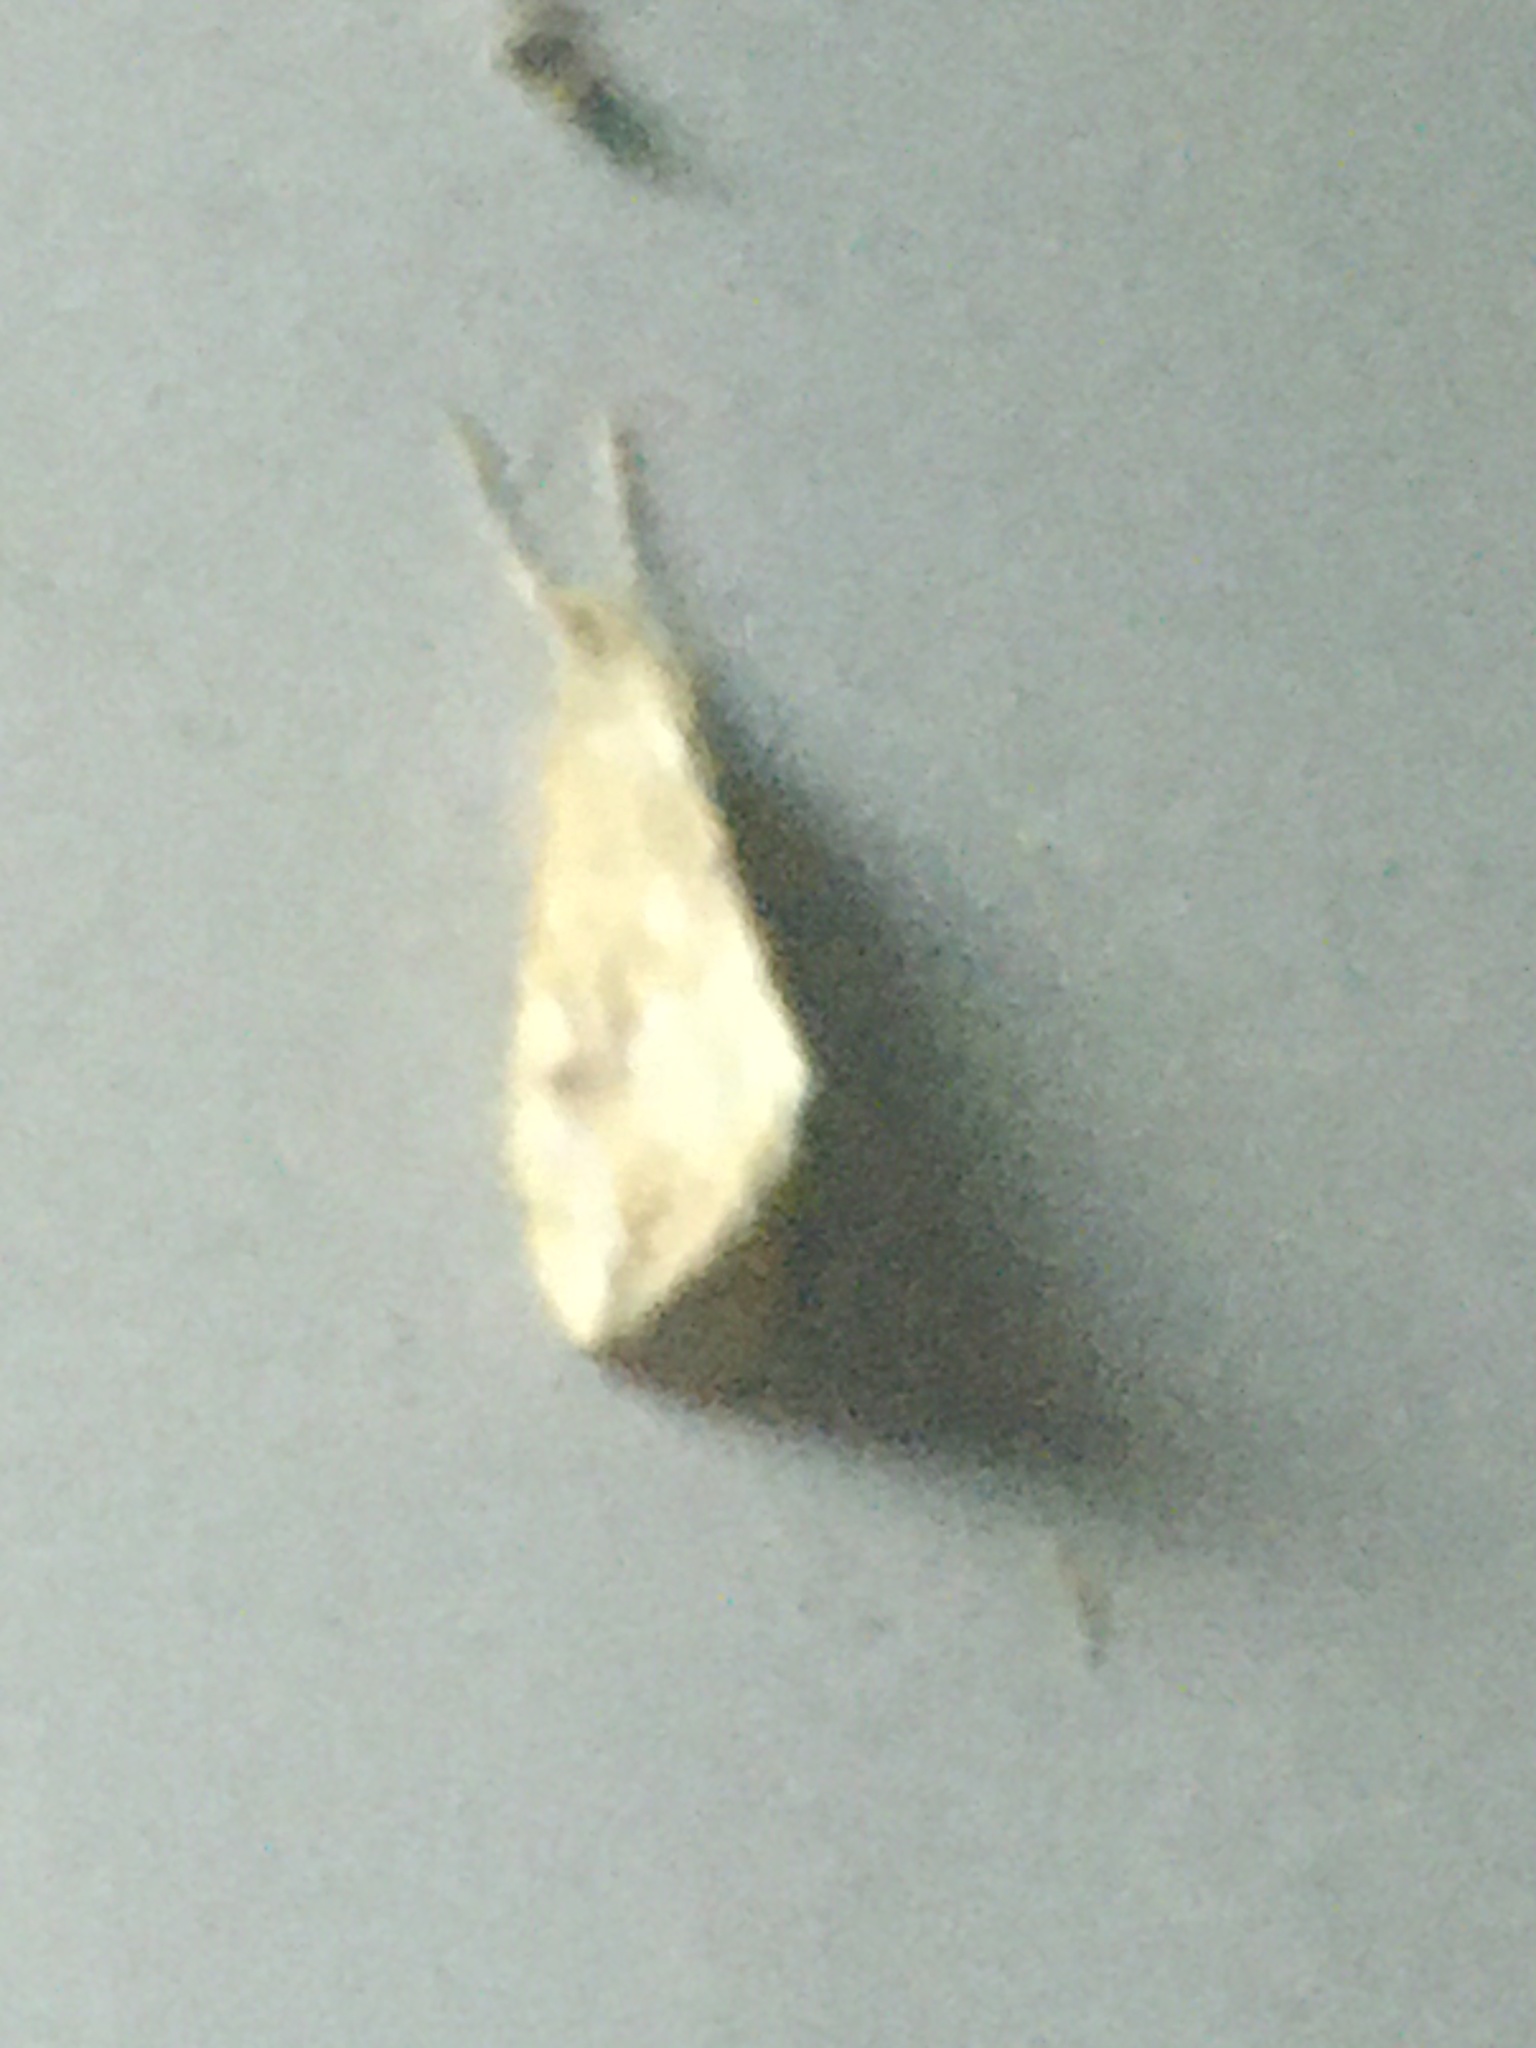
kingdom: Animalia
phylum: Arthropoda
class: Insecta
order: Lepidoptera
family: Crambidae
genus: Evergestis
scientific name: Evergestis forficalis
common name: Garden pebble
